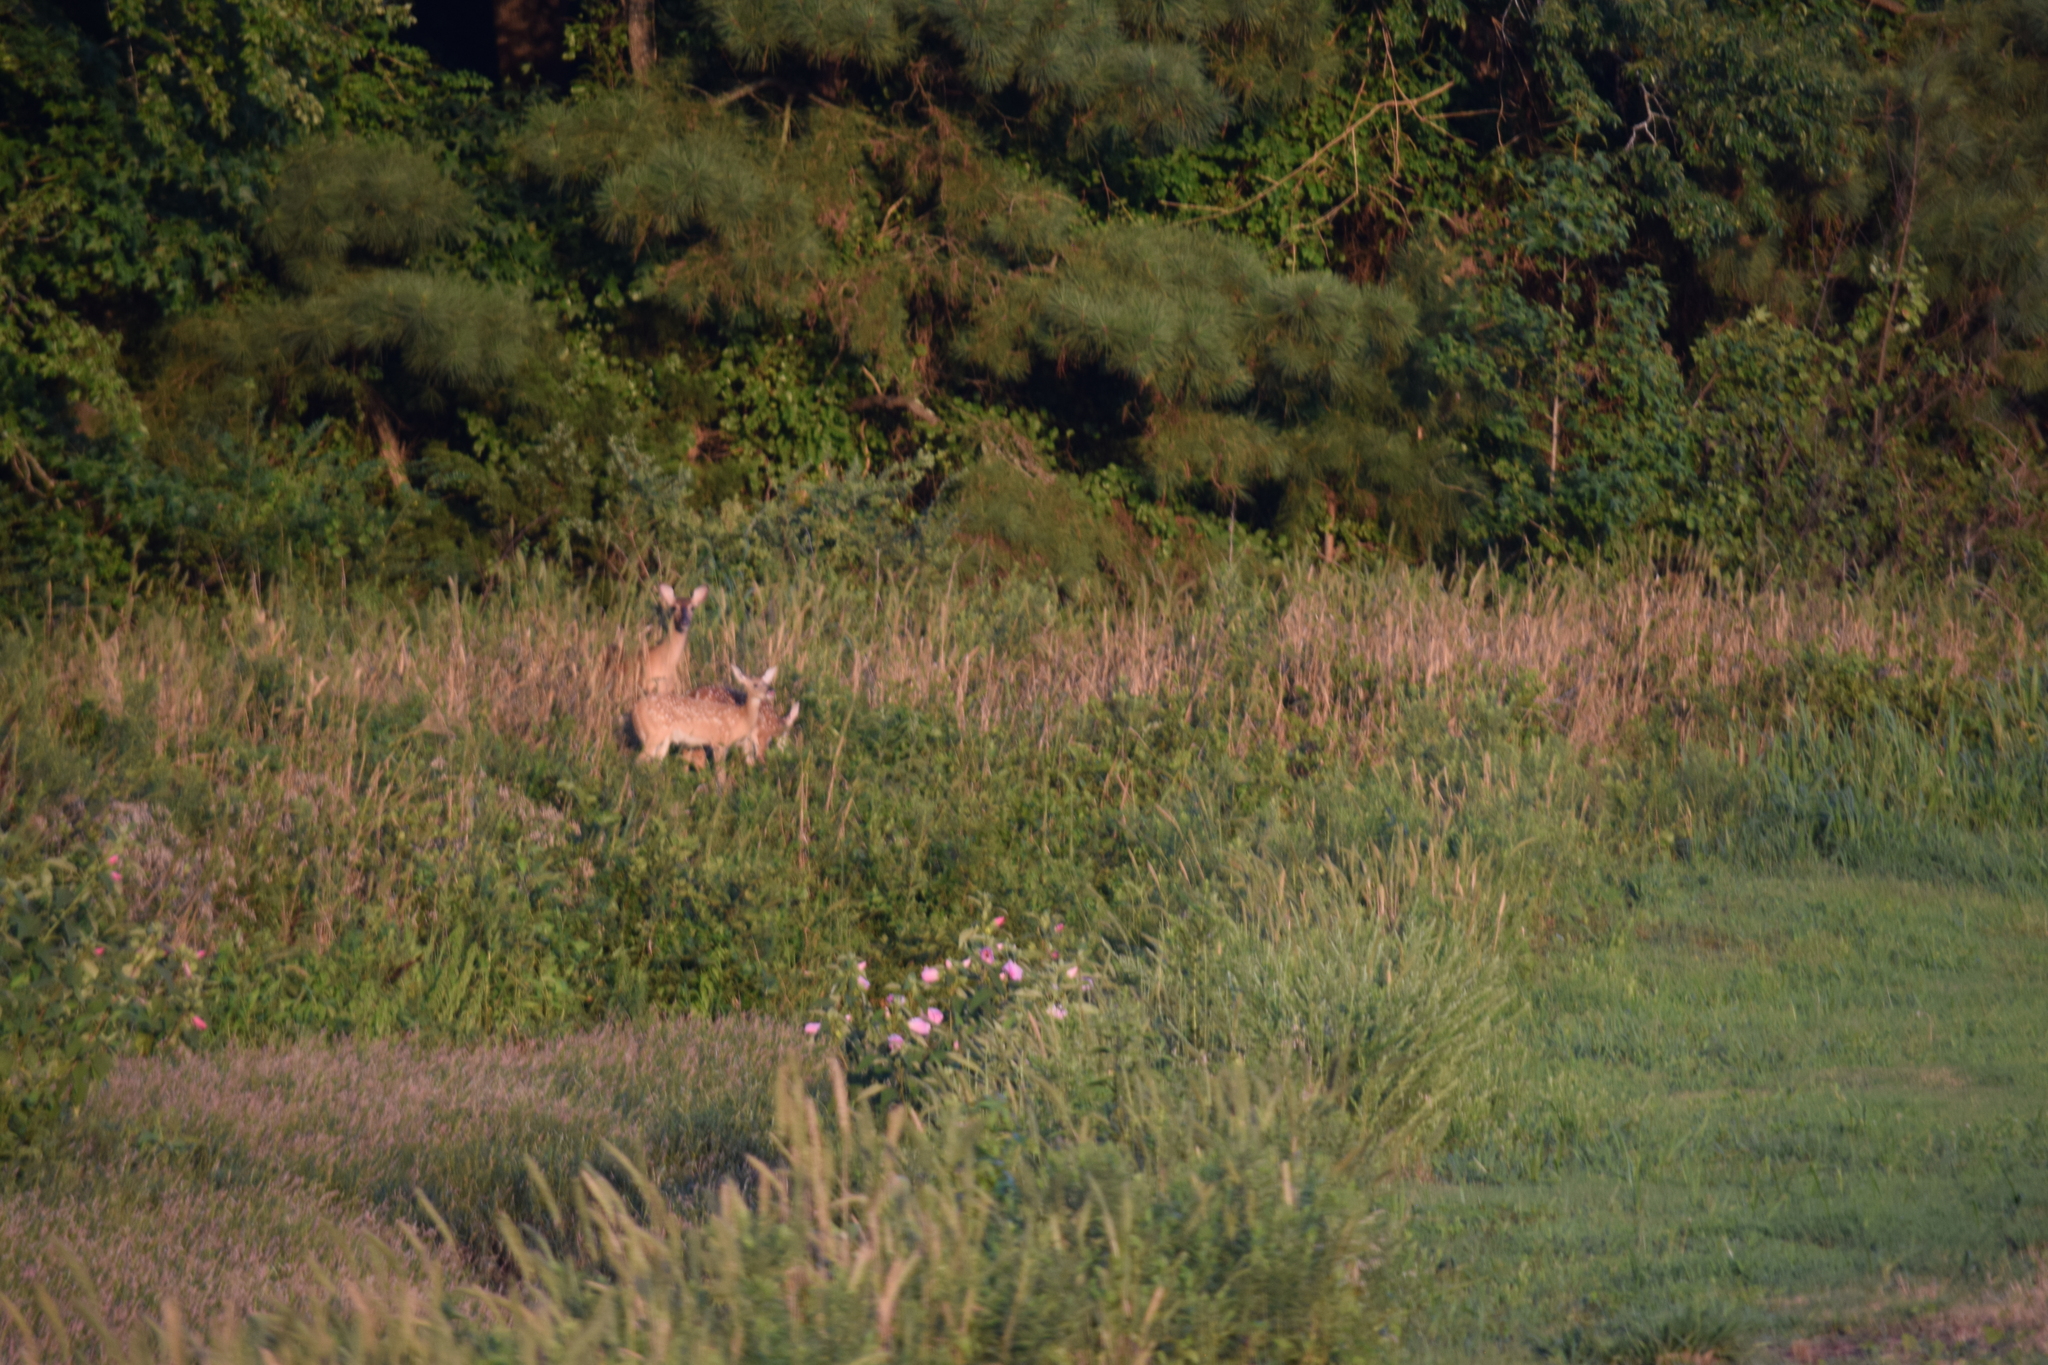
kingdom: Animalia
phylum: Chordata
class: Mammalia
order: Artiodactyla
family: Cervidae
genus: Odocoileus
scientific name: Odocoileus virginianus
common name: White-tailed deer
